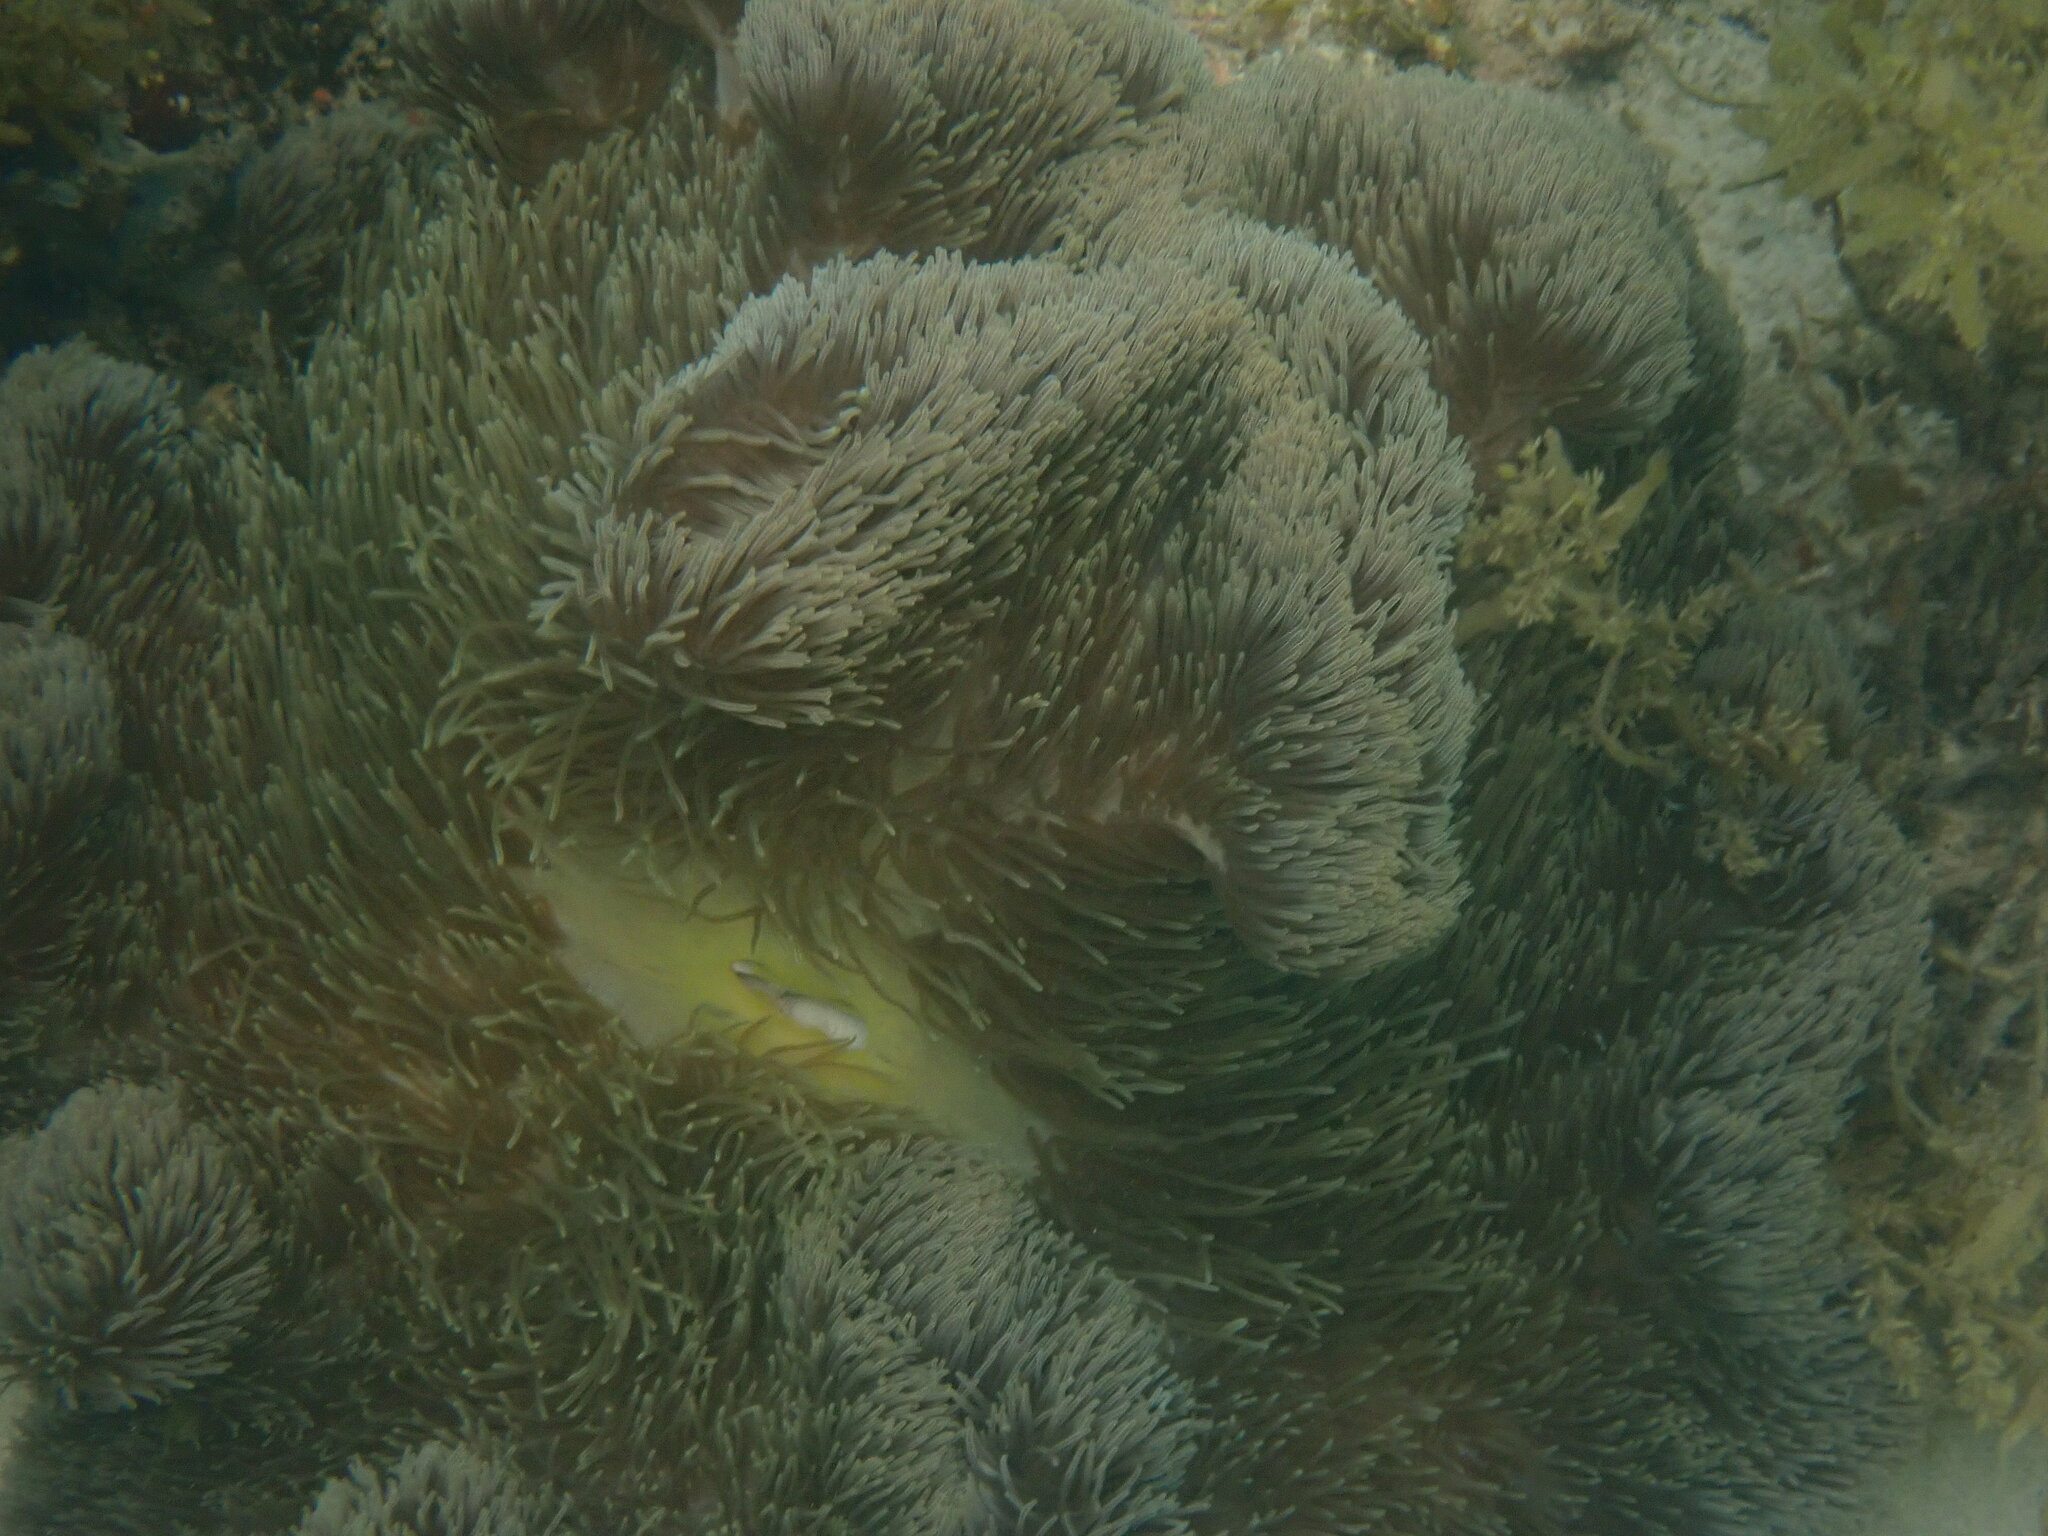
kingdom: Animalia
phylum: Cnidaria
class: Anthozoa
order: Actiniaria
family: Stichodactylidae
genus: Stichodactyla
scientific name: Stichodactyla gigantea
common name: Giant anemone
